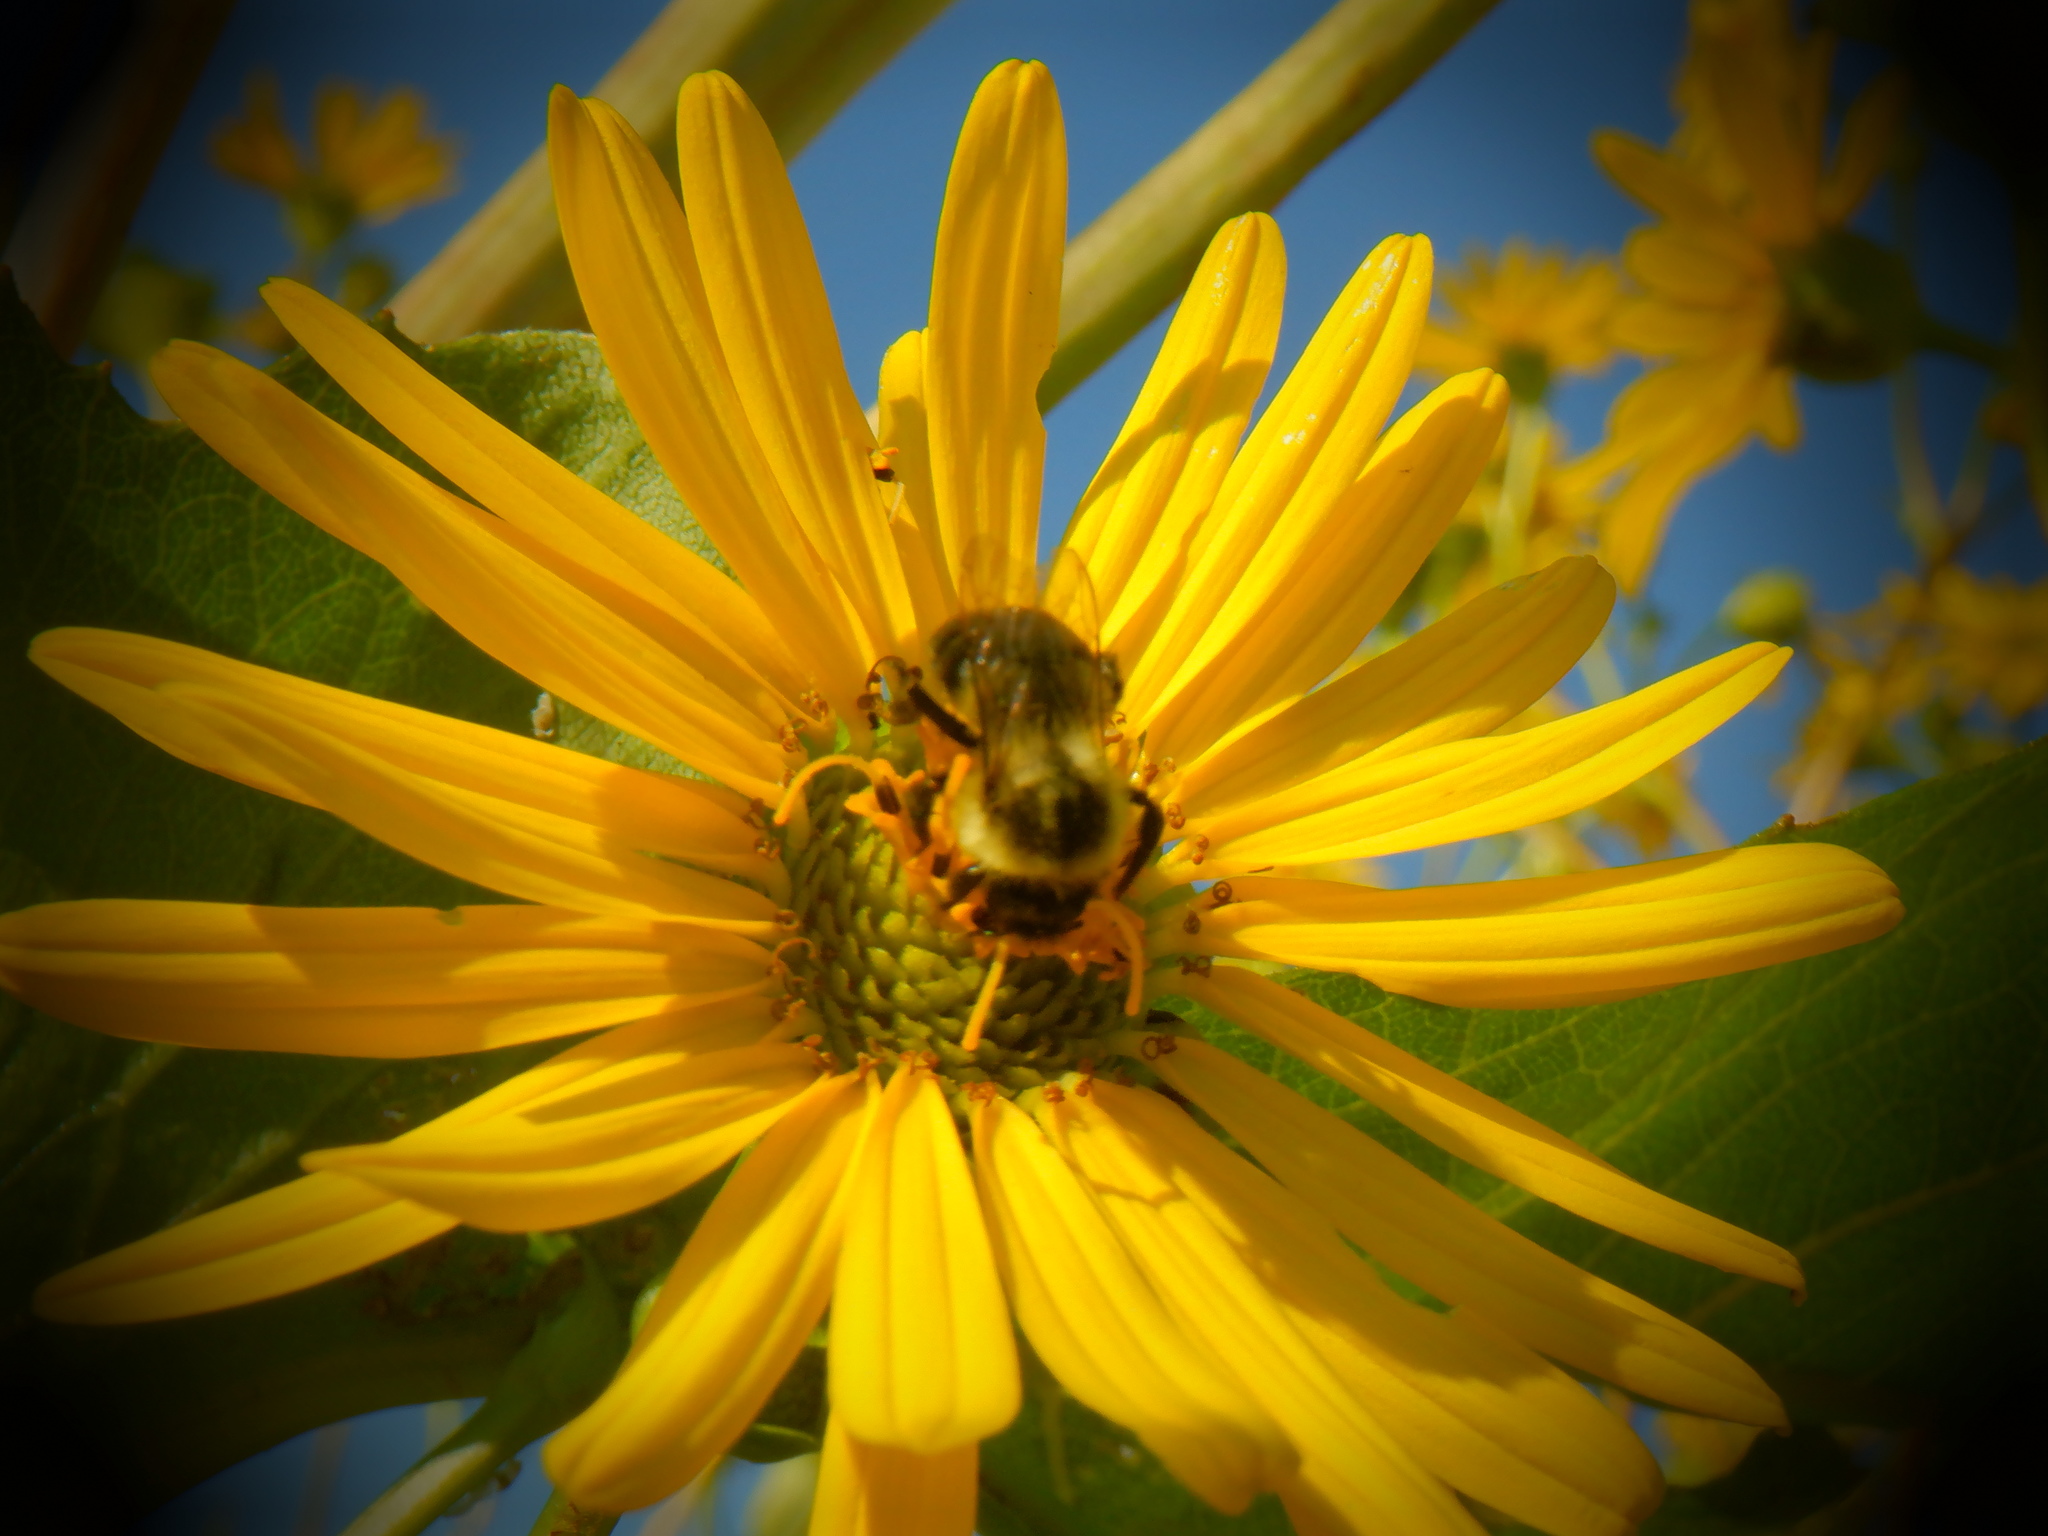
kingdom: Animalia
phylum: Arthropoda
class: Insecta
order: Hymenoptera
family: Apidae
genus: Bombus
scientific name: Bombus impatiens
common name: Common eastern bumble bee
